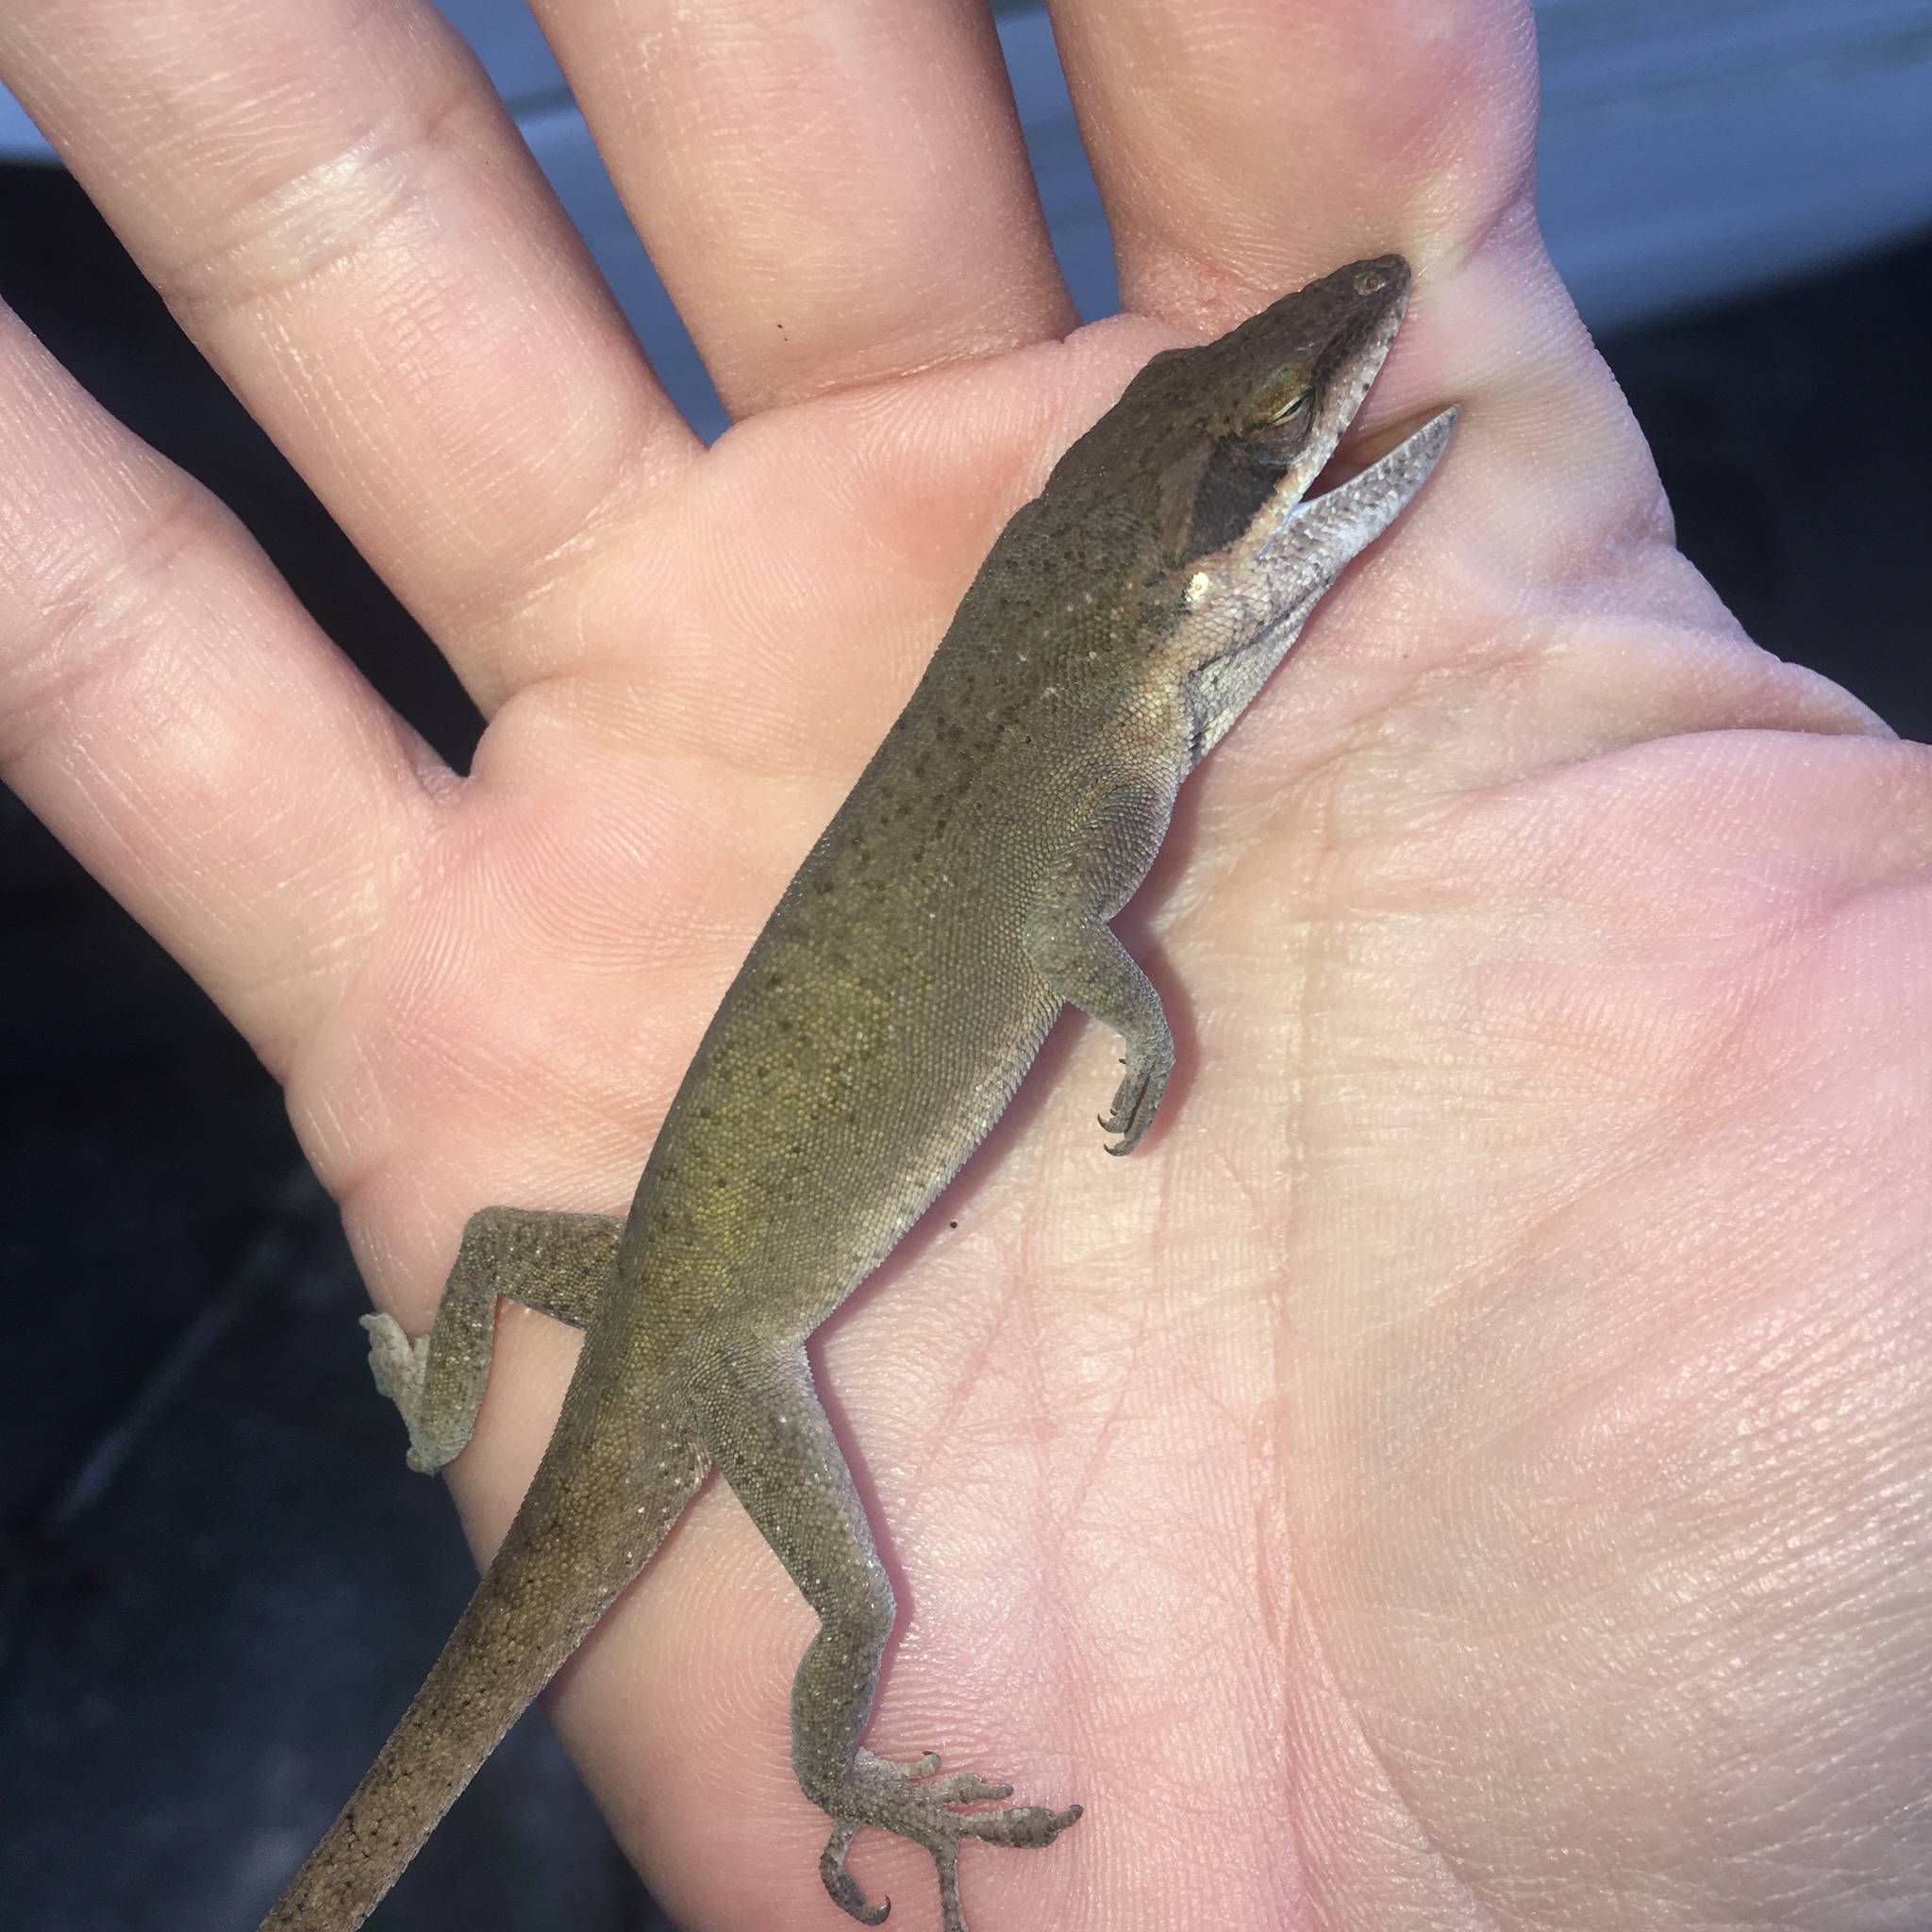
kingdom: Animalia
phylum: Chordata
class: Squamata
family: Dactyloidae
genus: Anolis
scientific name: Anolis carolinensis
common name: Green anole
